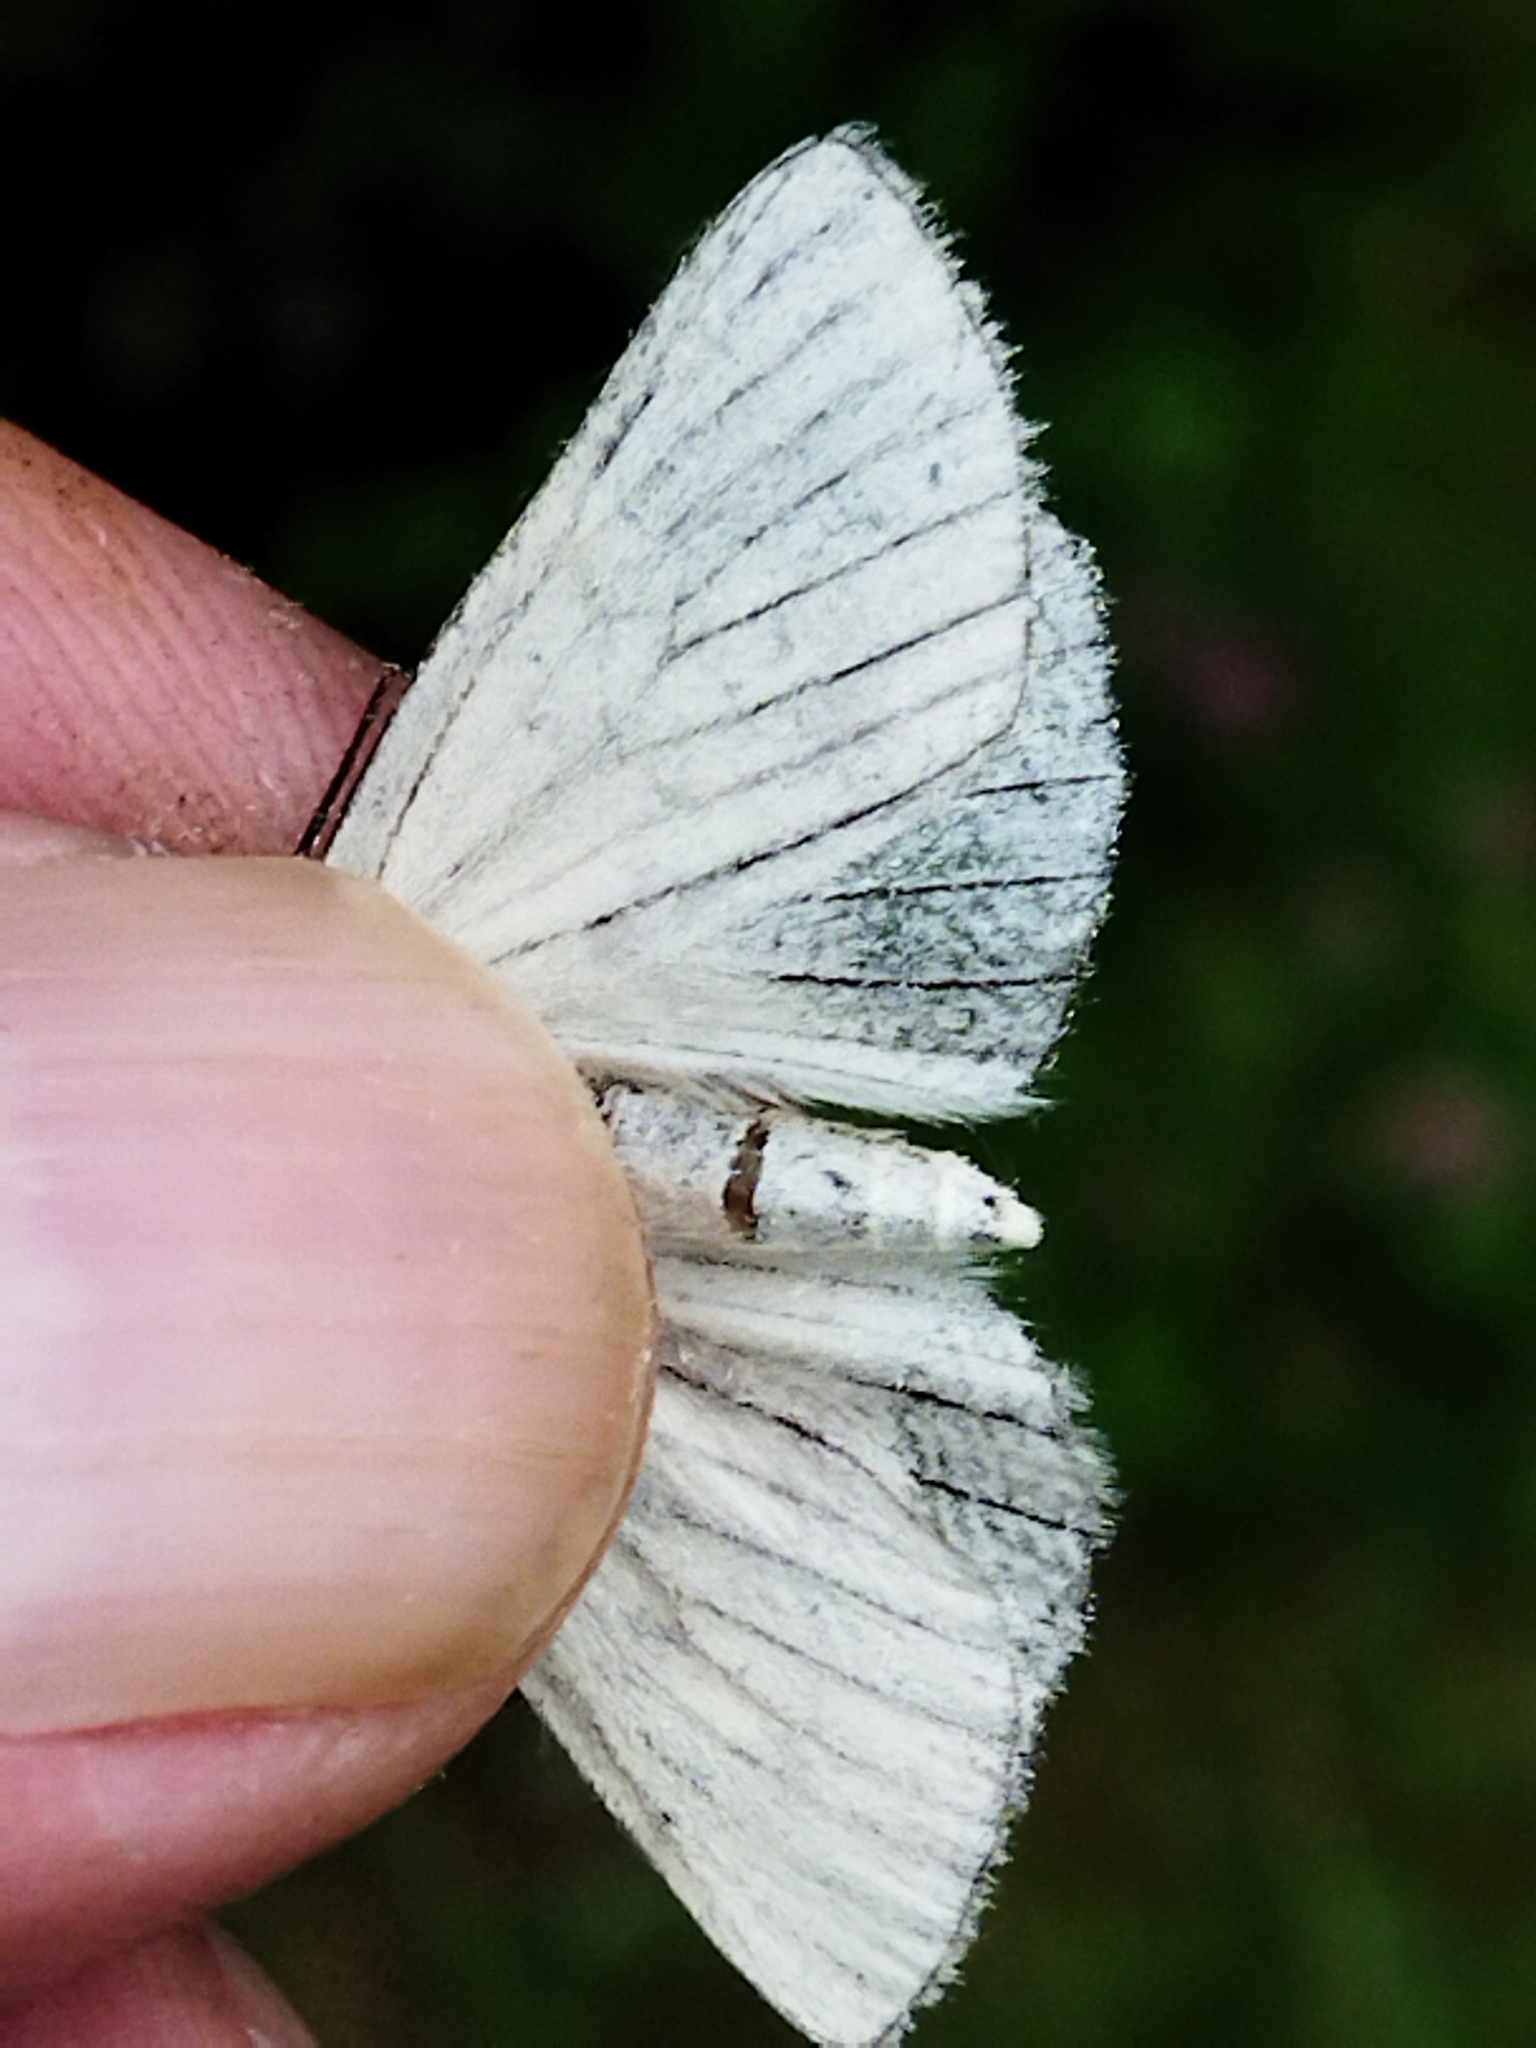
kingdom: Animalia
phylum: Arthropoda
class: Insecta
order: Lepidoptera
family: Geometridae
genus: Siona
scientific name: Siona lineata
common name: Black-veined moth
